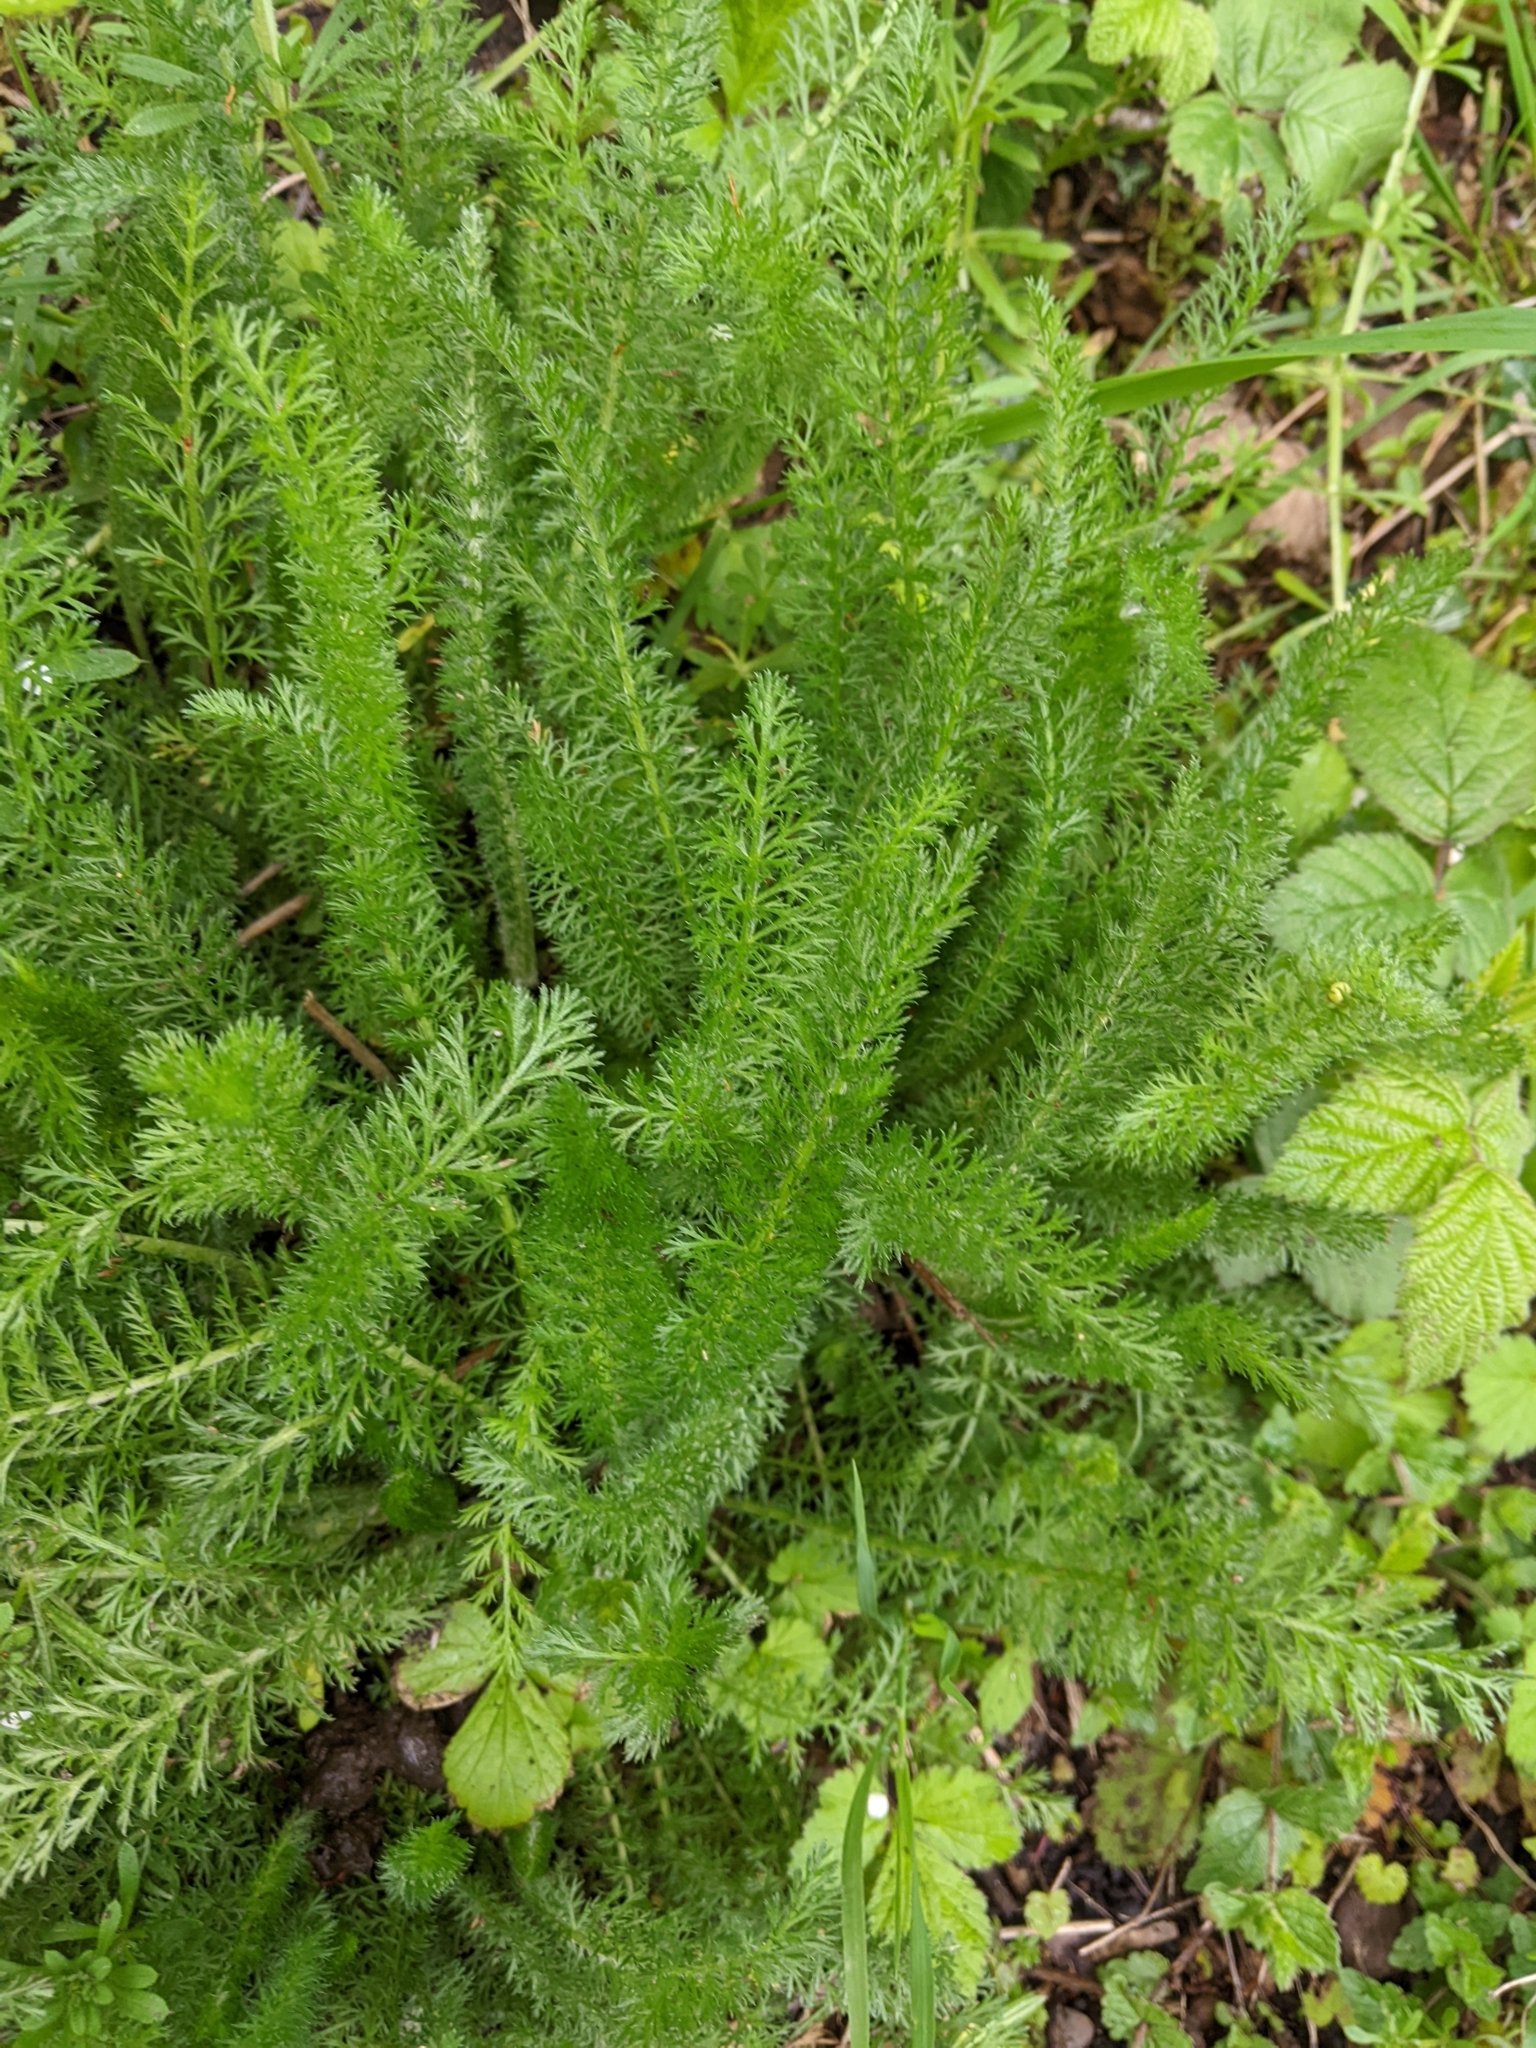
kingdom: Plantae
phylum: Tracheophyta
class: Magnoliopsida
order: Asterales
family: Asteraceae
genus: Achillea
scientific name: Achillea millefolium
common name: Yarrow
